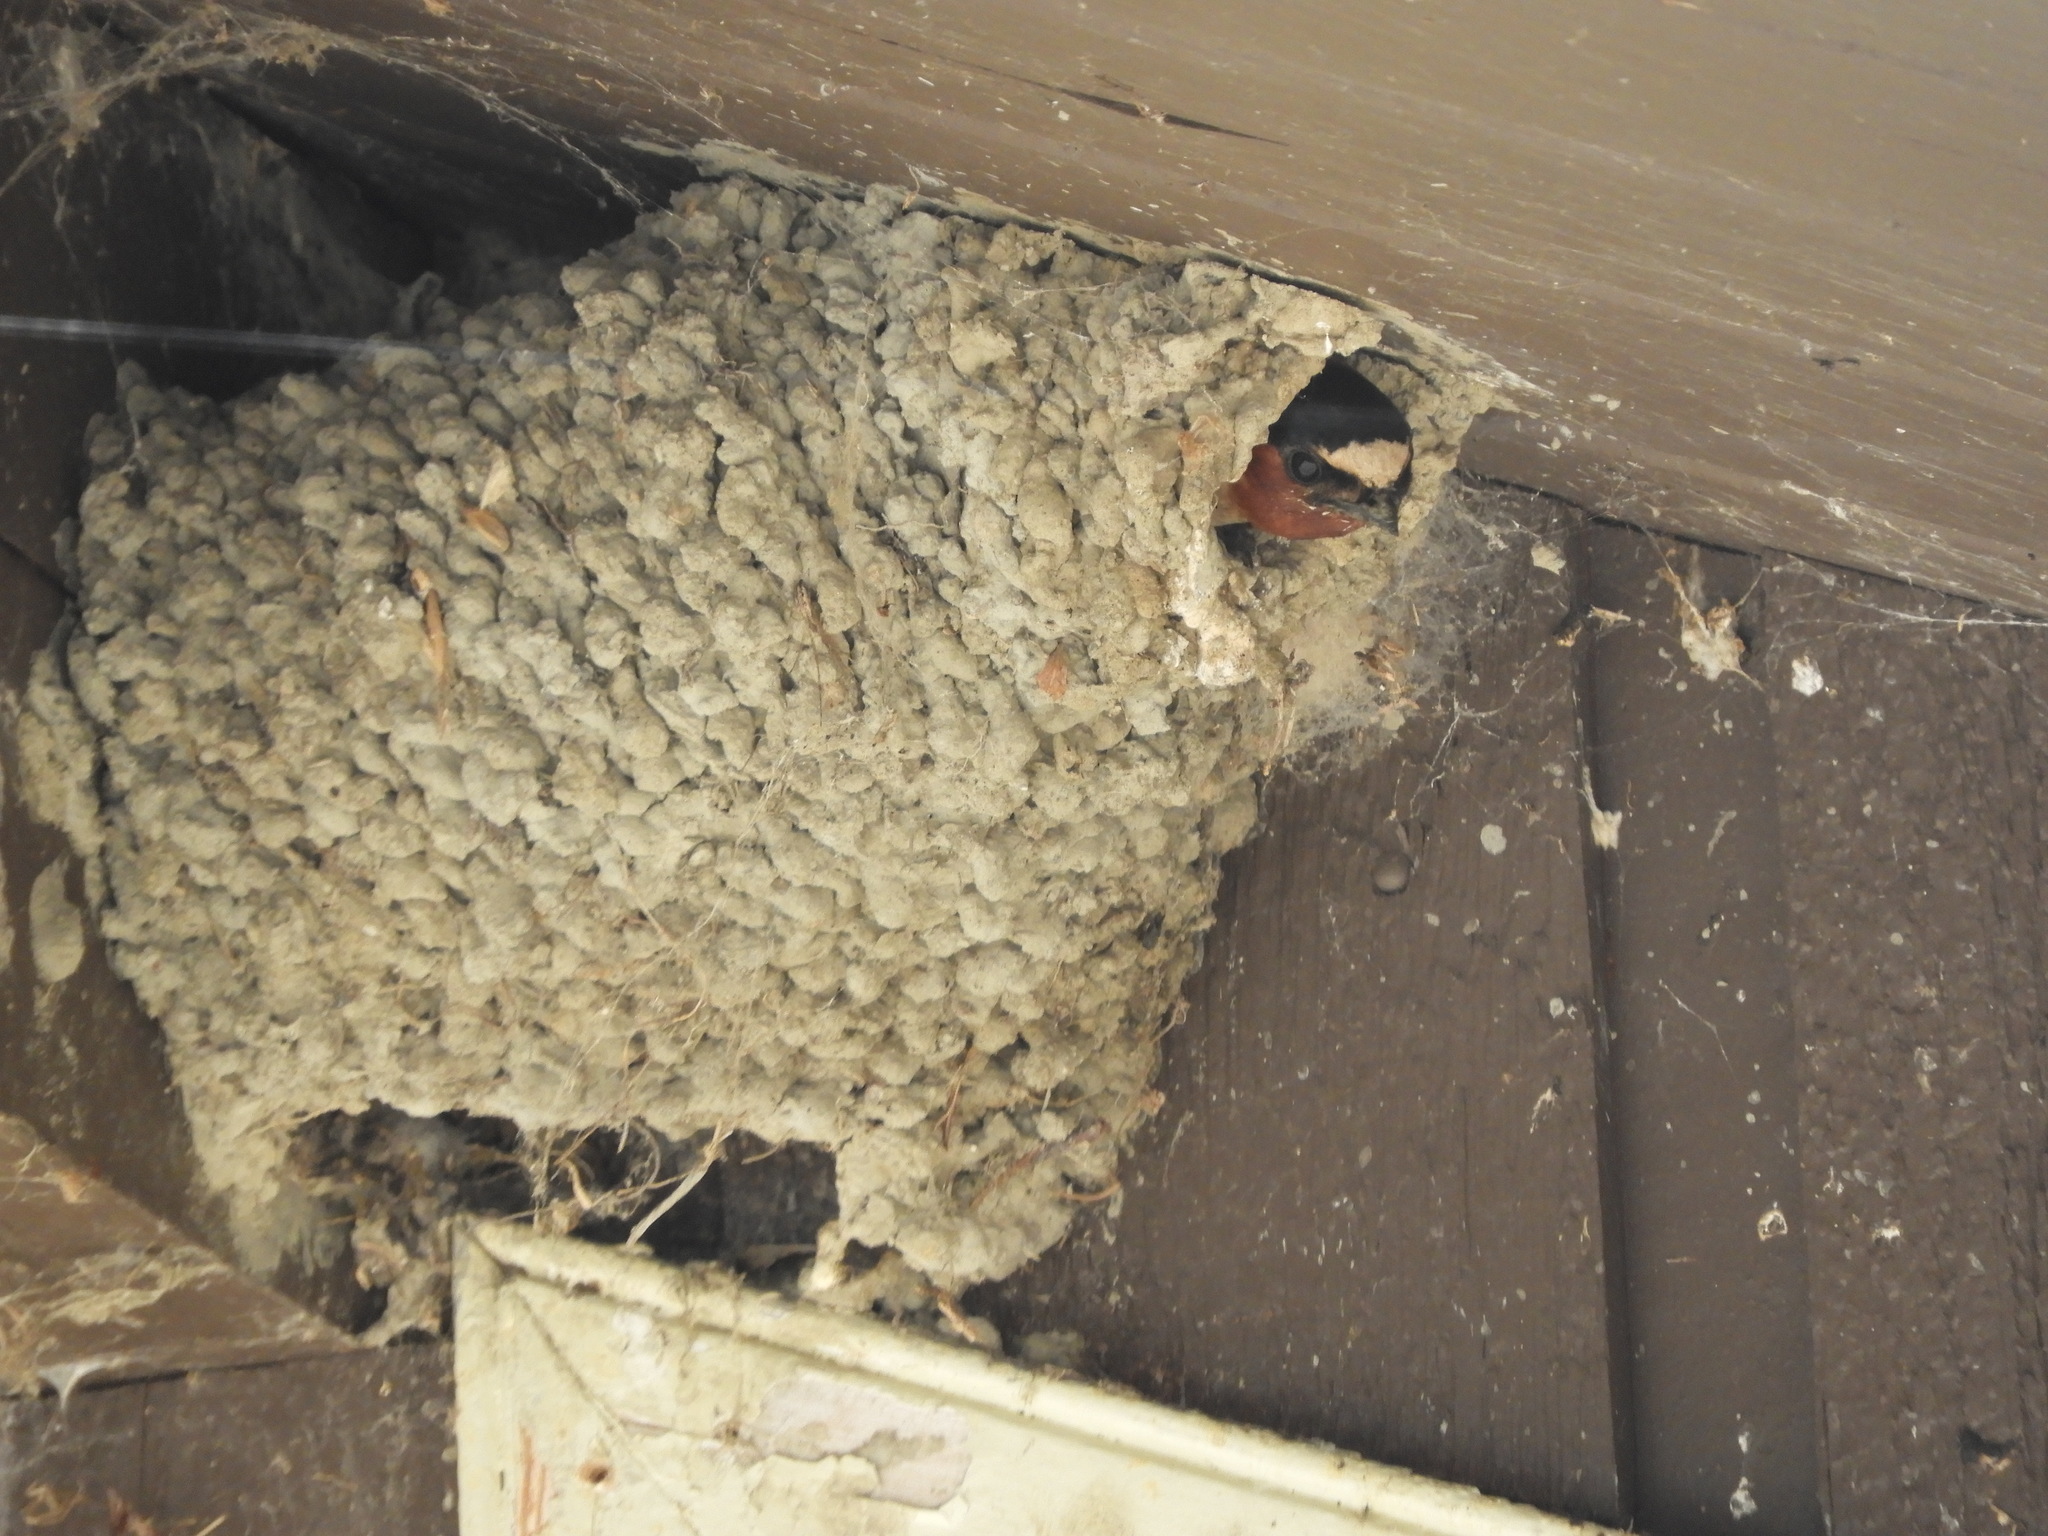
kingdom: Animalia
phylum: Chordata
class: Aves
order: Passeriformes
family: Hirundinidae
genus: Petrochelidon
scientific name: Petrochelidon pyrrhonota
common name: American cliff swallow
